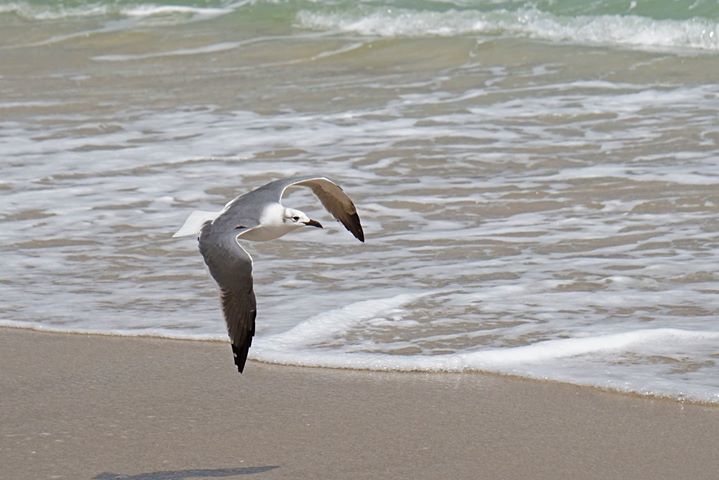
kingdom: Animalia
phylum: Chordata
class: Aves
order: Charadriiformes
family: Laridae
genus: Leucophaeus
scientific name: Leucophaeus atricilla
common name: Laughing gull
